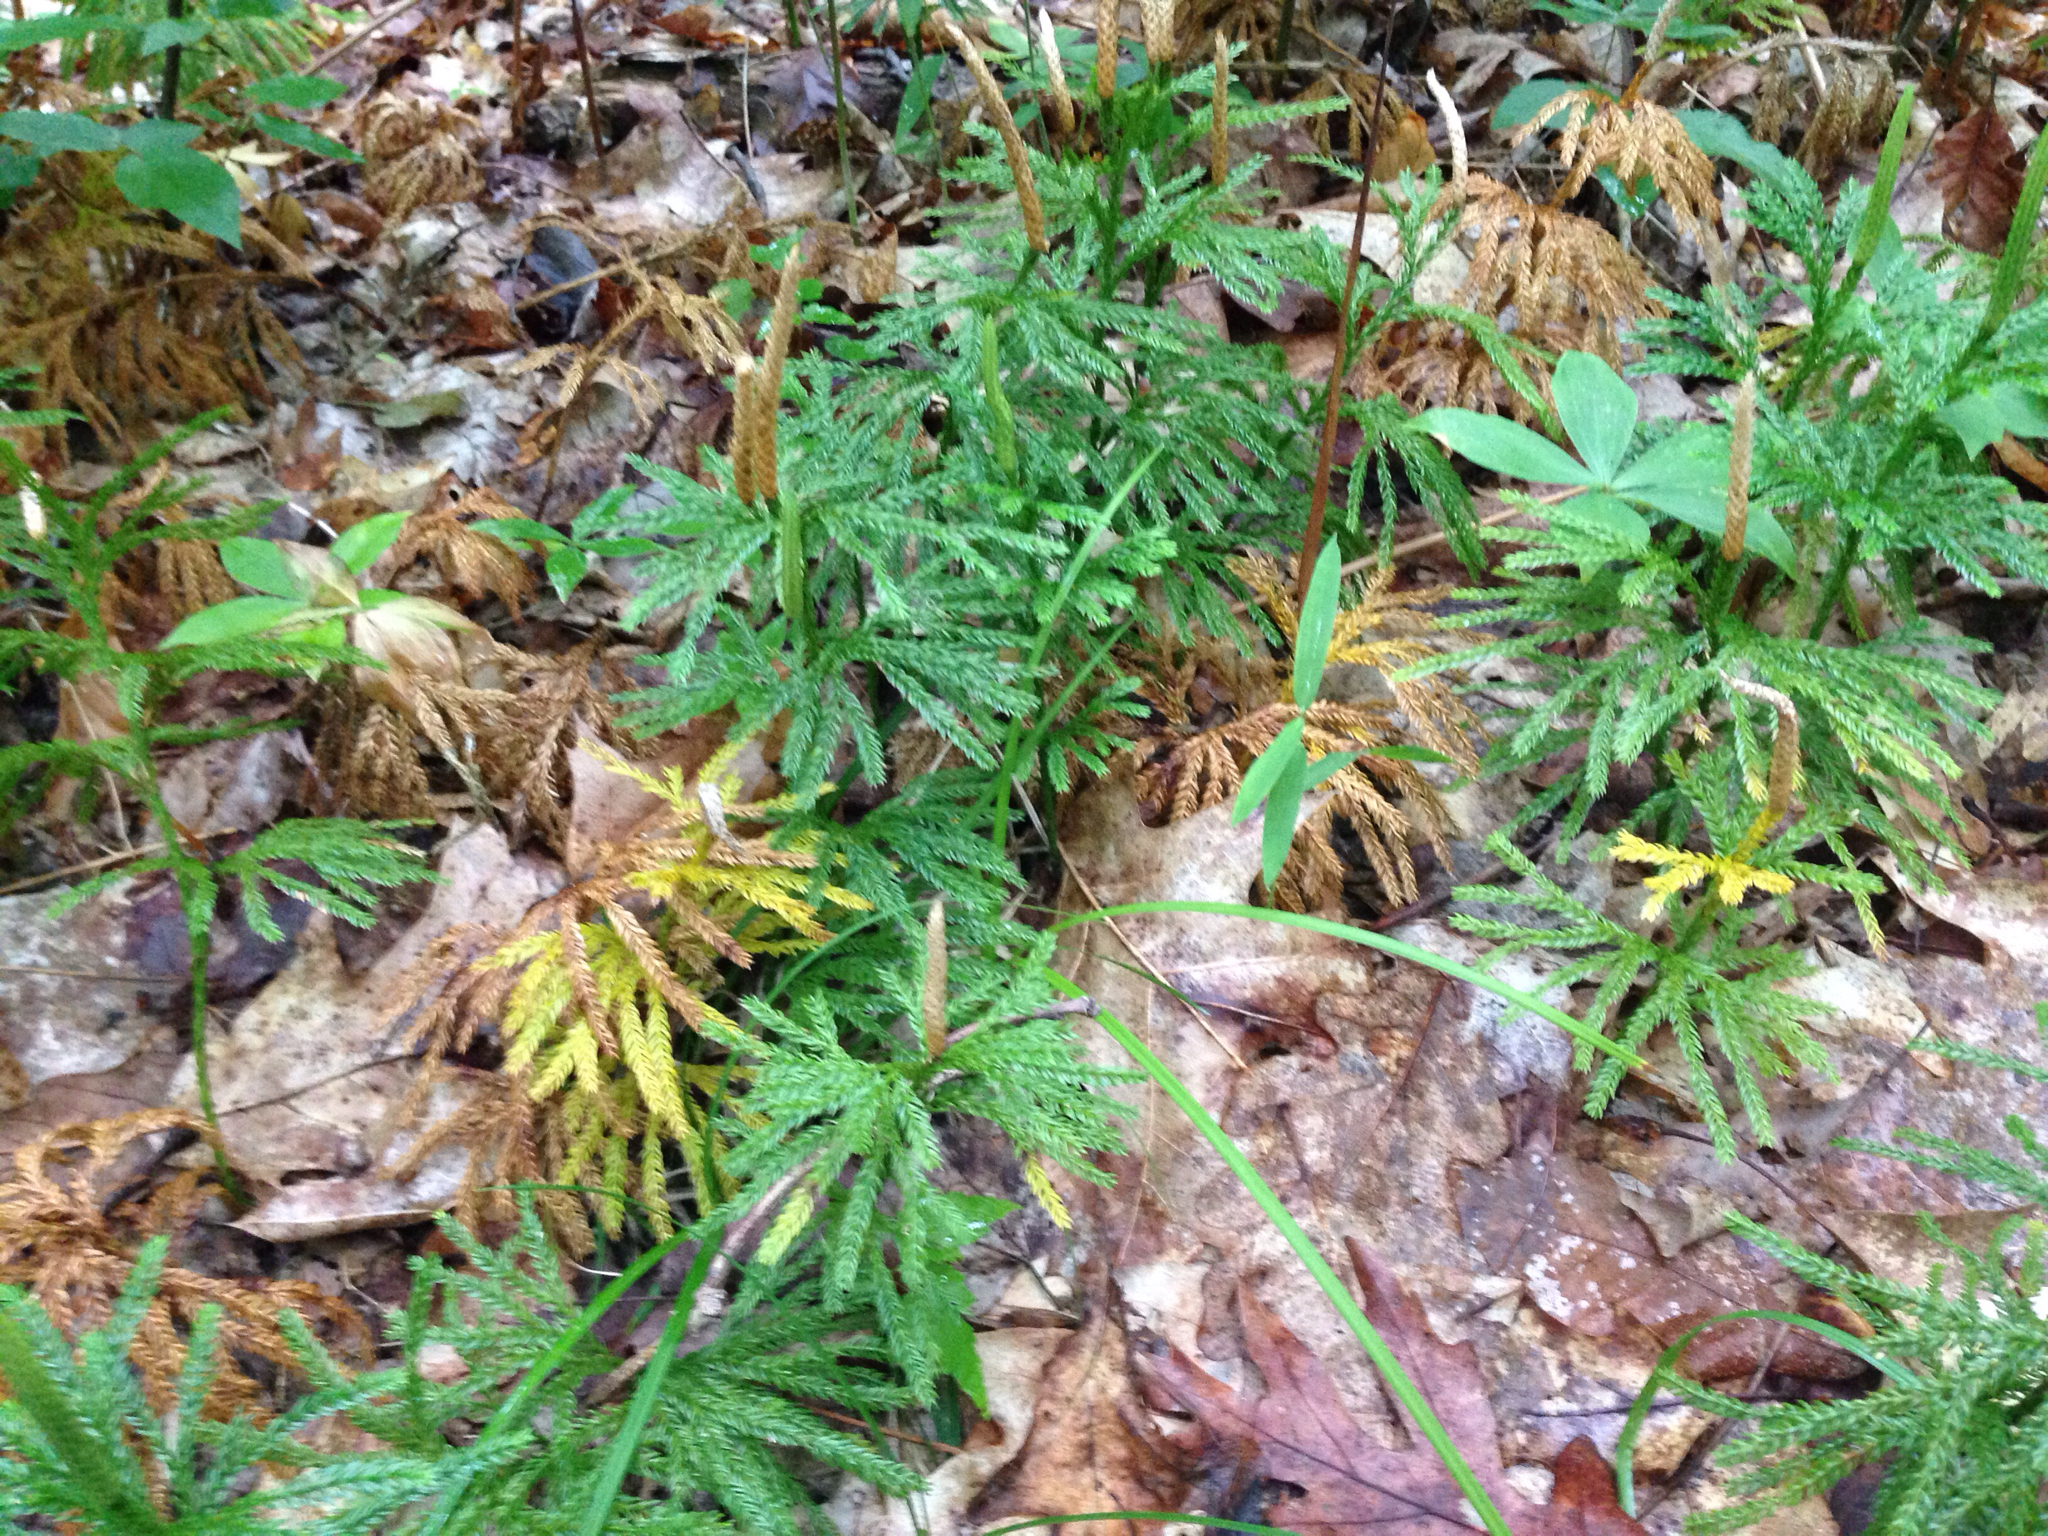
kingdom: Plantae
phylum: Tracheophyta
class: Lycopodiopsida
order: Lycopodiales
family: Lycopodiaceae
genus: Dendrolycopodium
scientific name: Dendrolycopodium obscurum
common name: Common ground-pine
